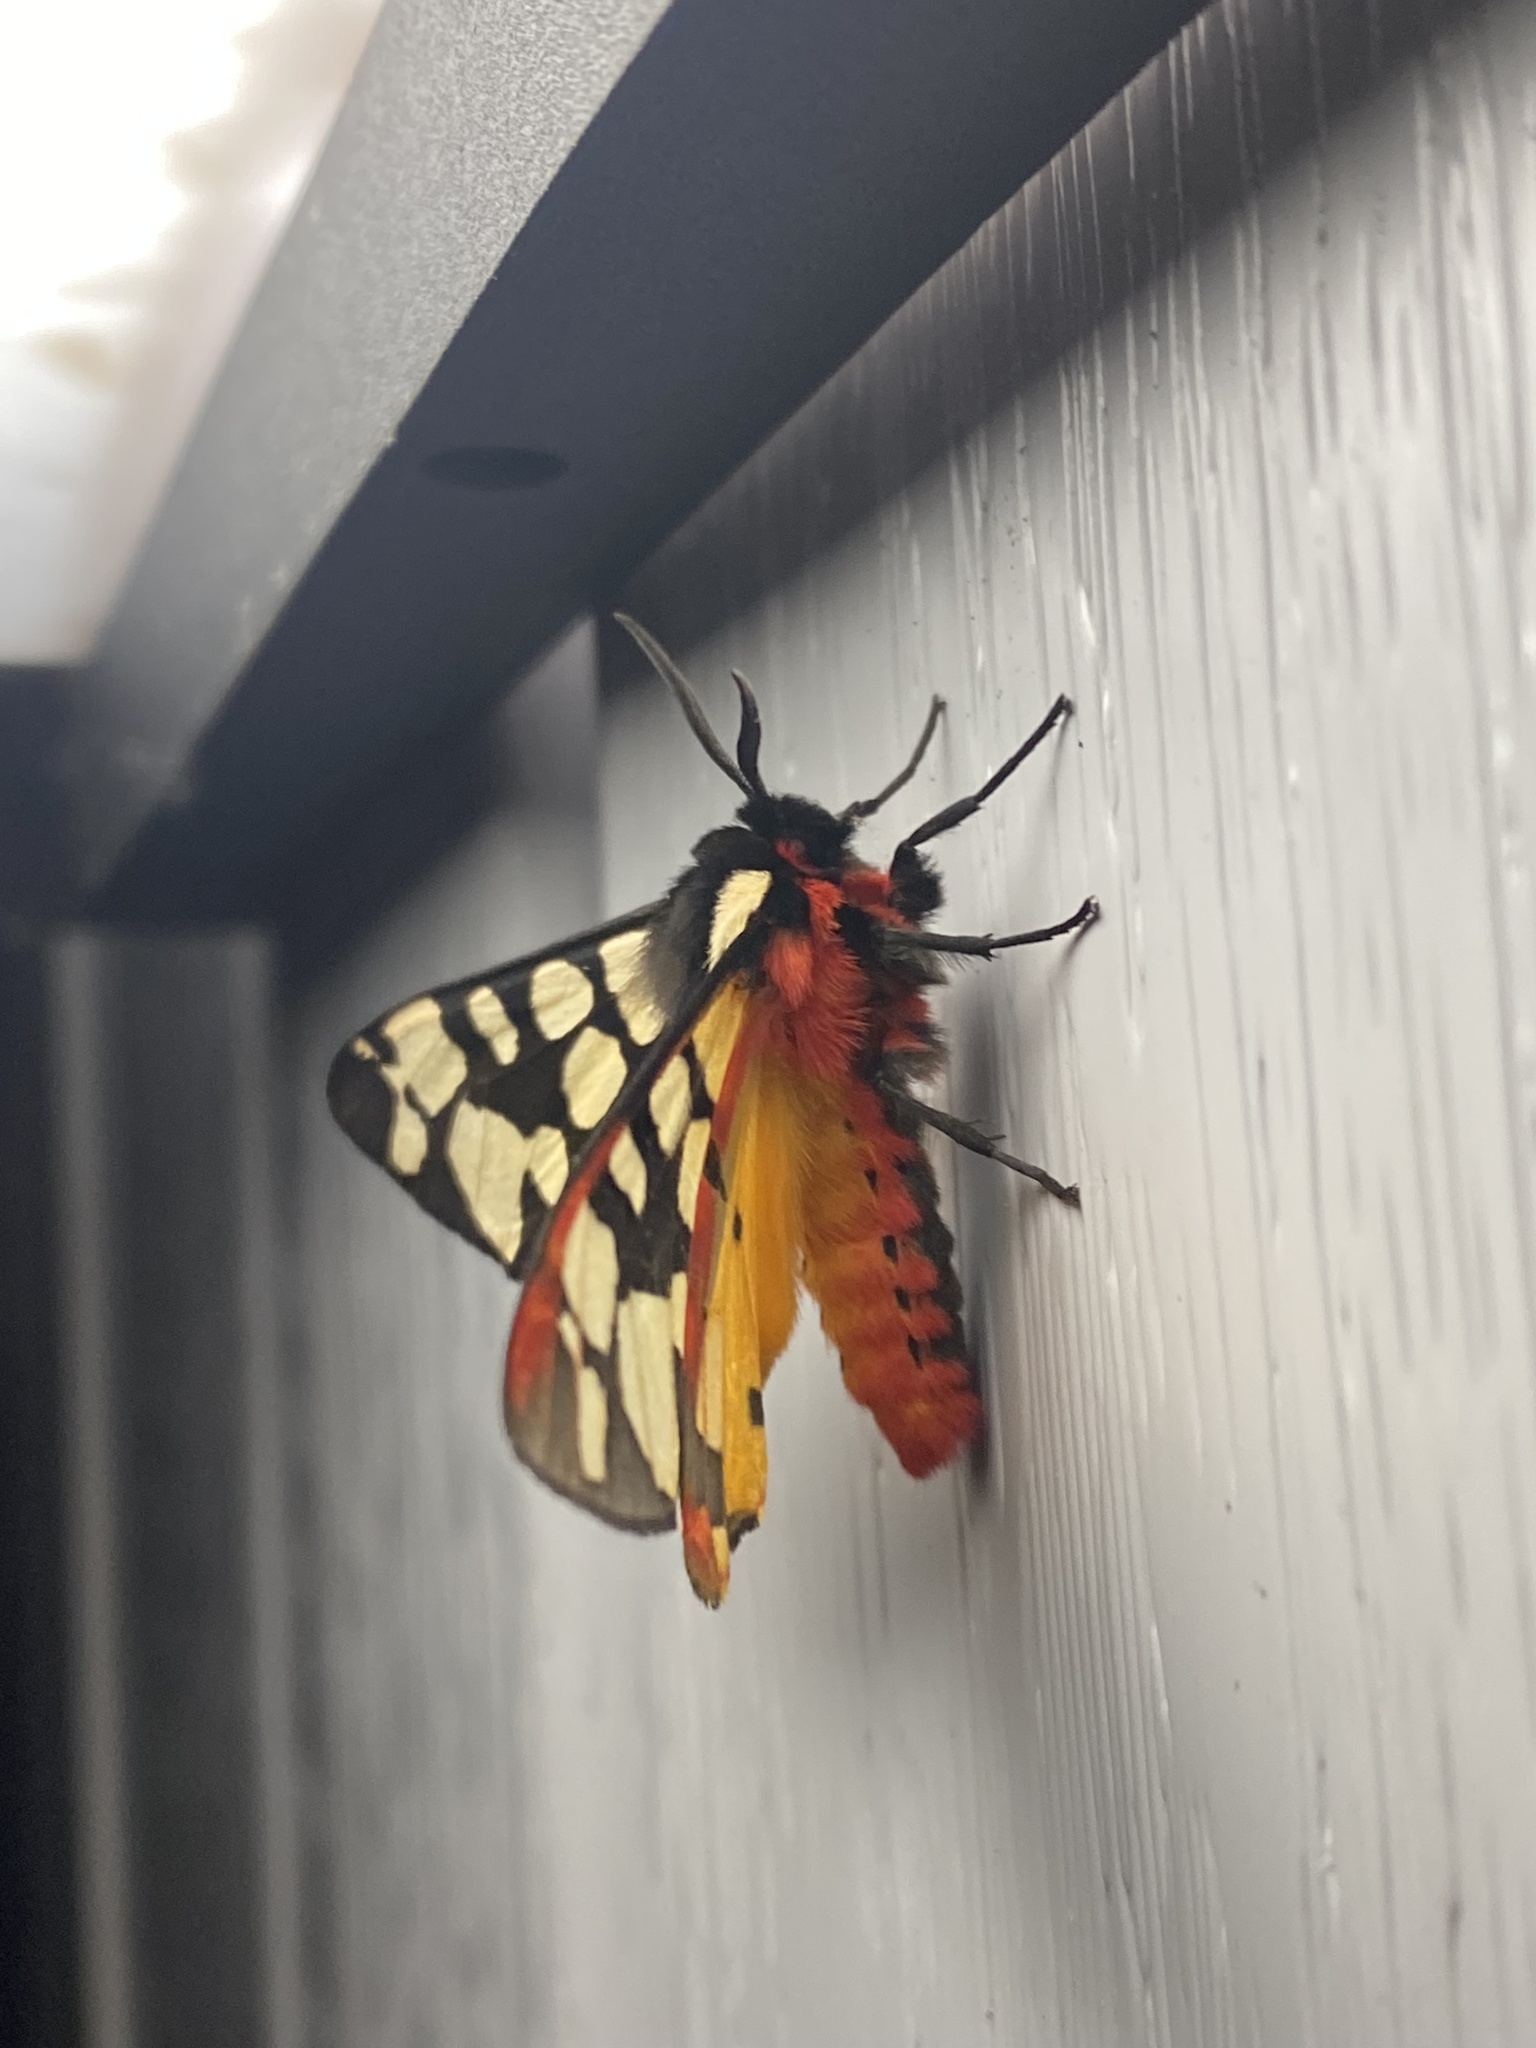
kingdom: Animalia
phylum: Arthropoda
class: Insecta
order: Lepidoptera
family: Erebidae
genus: Epicallia
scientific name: Epicallia villica
